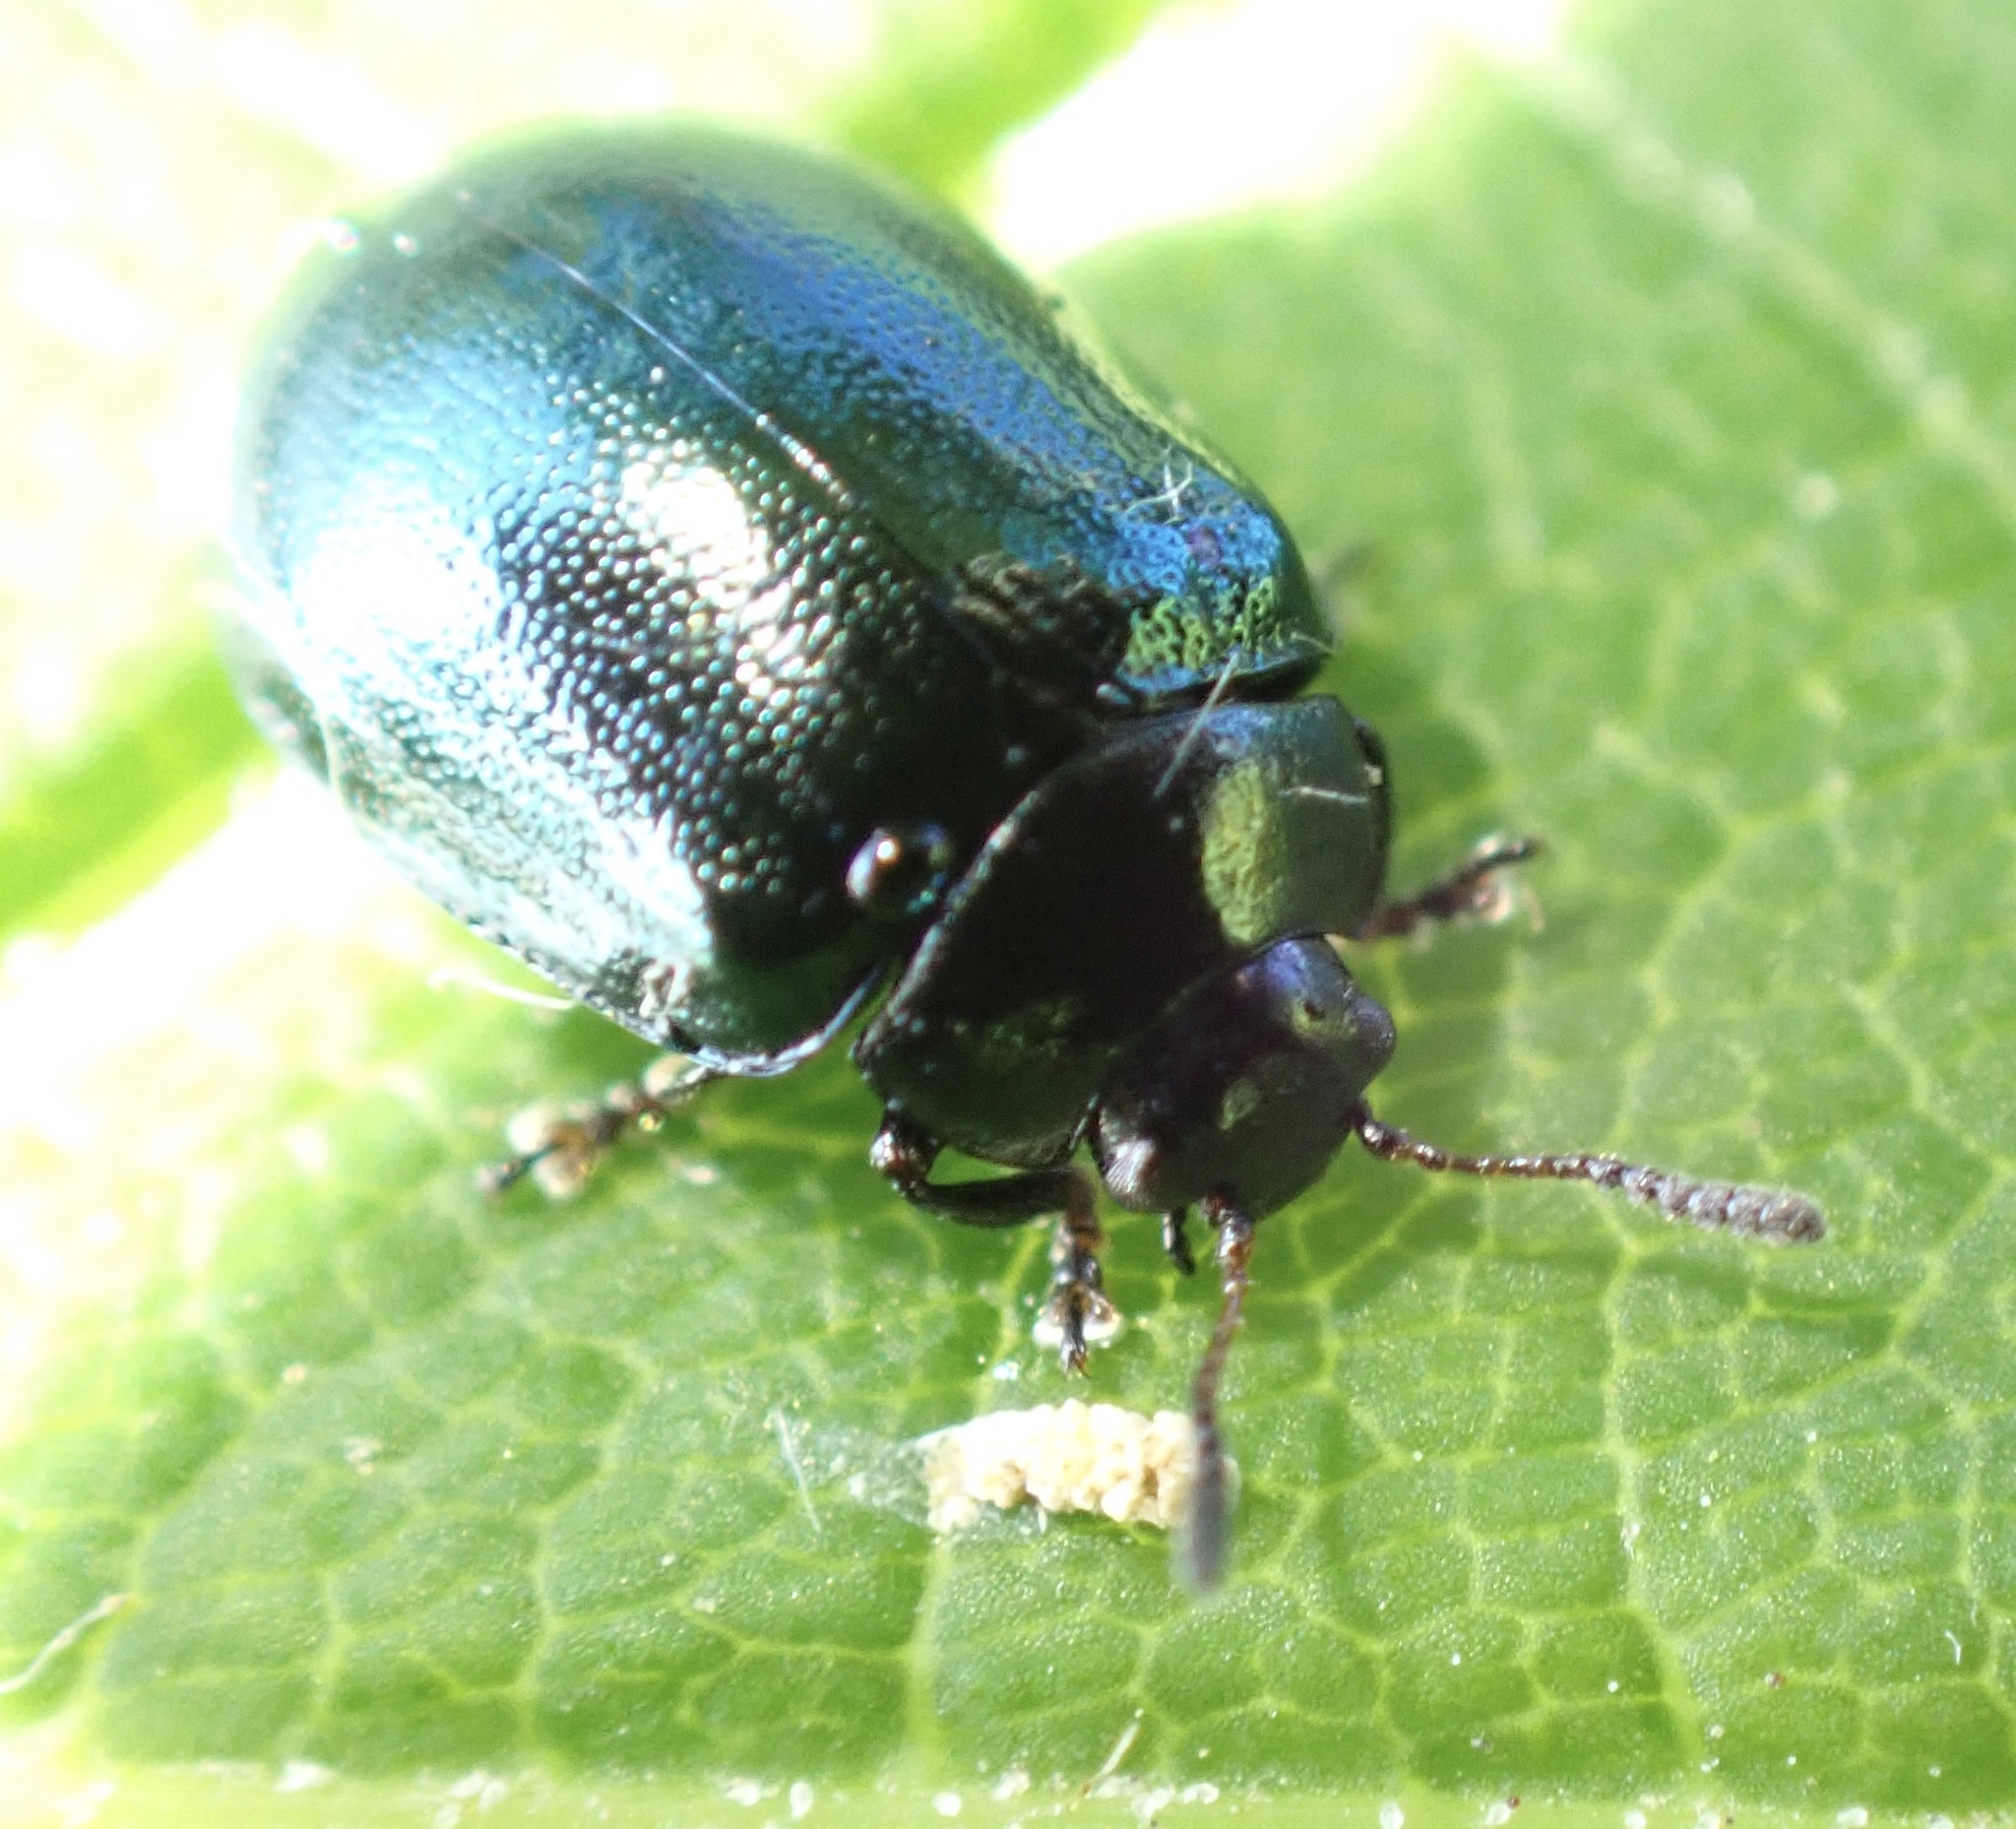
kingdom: Animalia
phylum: Arthropoda
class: Insecta
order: Coleoptera
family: Chrysomelidae
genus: Plagiodera
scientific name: Plagiodera versicolora
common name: Imported willow leaf beetle
